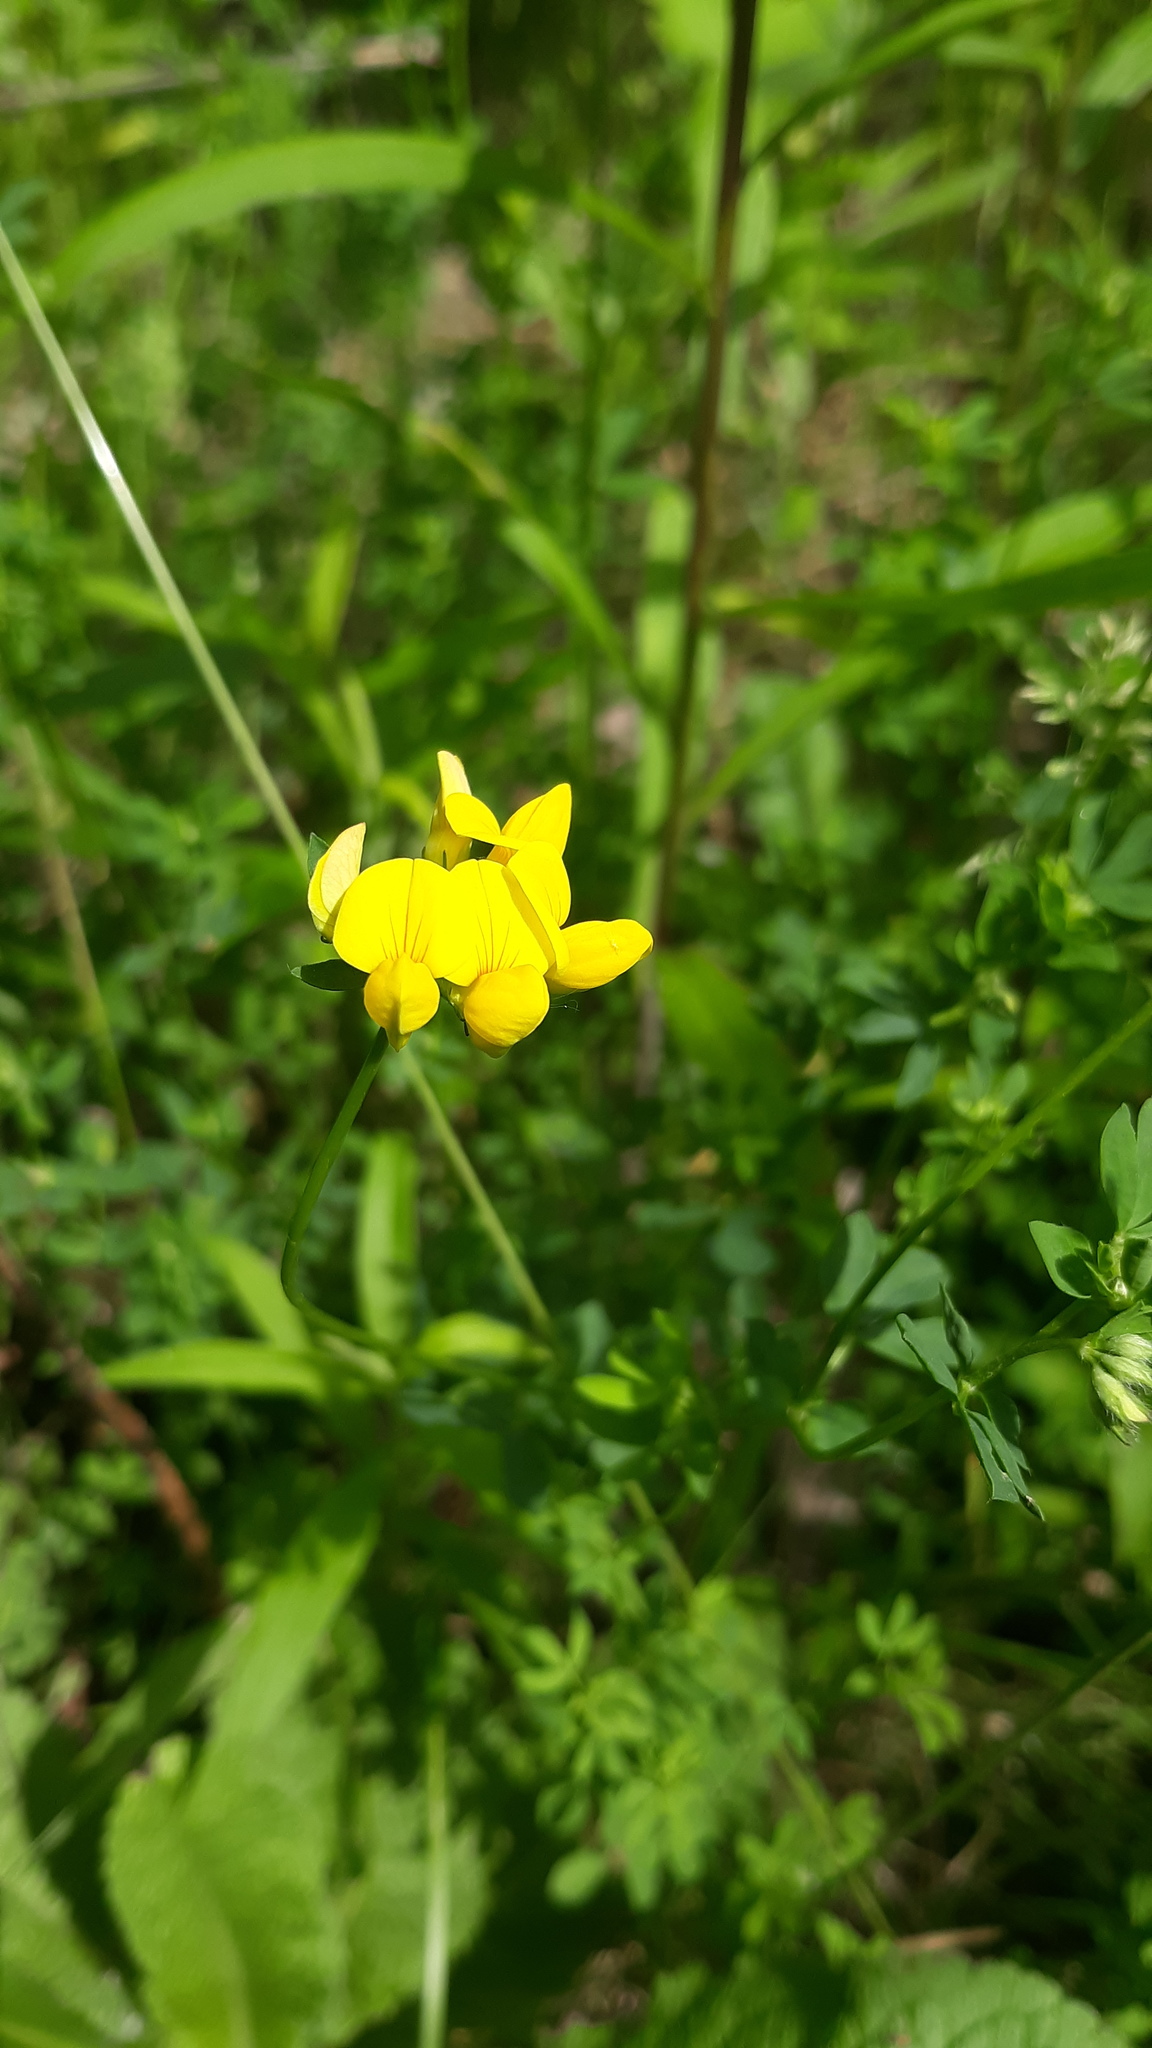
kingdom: Plantae
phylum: Tracheophyta
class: Magnoliopsida
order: Fabales
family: Fabaceae
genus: Lotus
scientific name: Lotus corniculatus
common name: Common bird's-foot-trefoil
